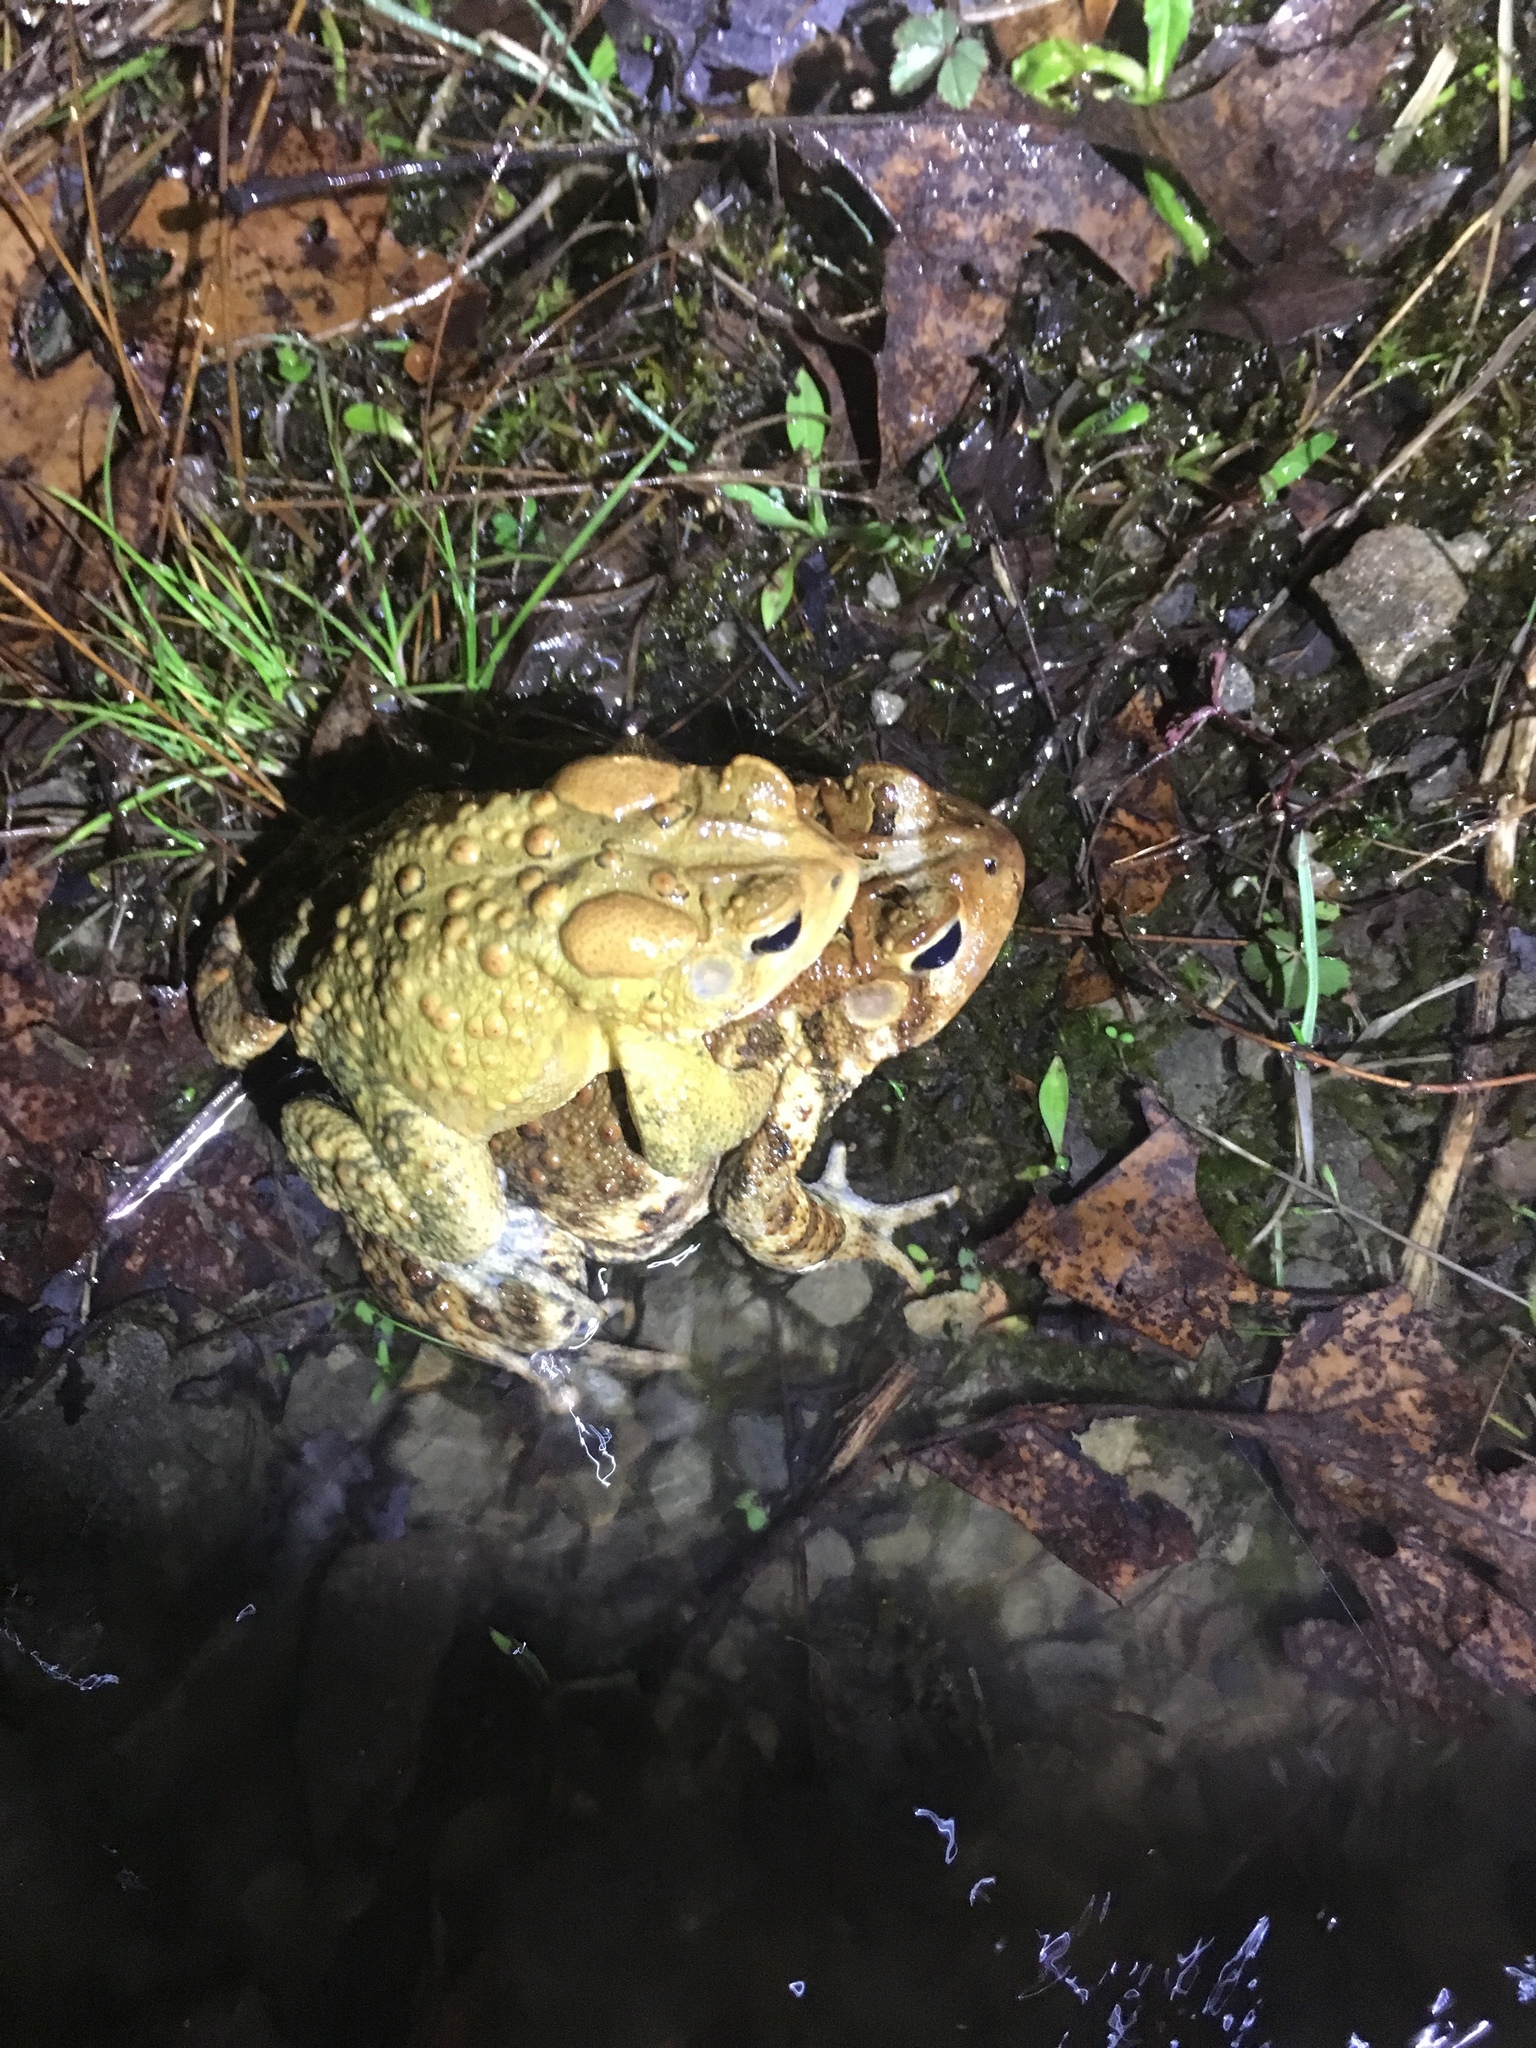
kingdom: Animalia
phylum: Chordata
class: Amphibia
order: Anura
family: Bufonidae
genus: Anaxyrus
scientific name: Anaxyrus americanus
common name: American toad
